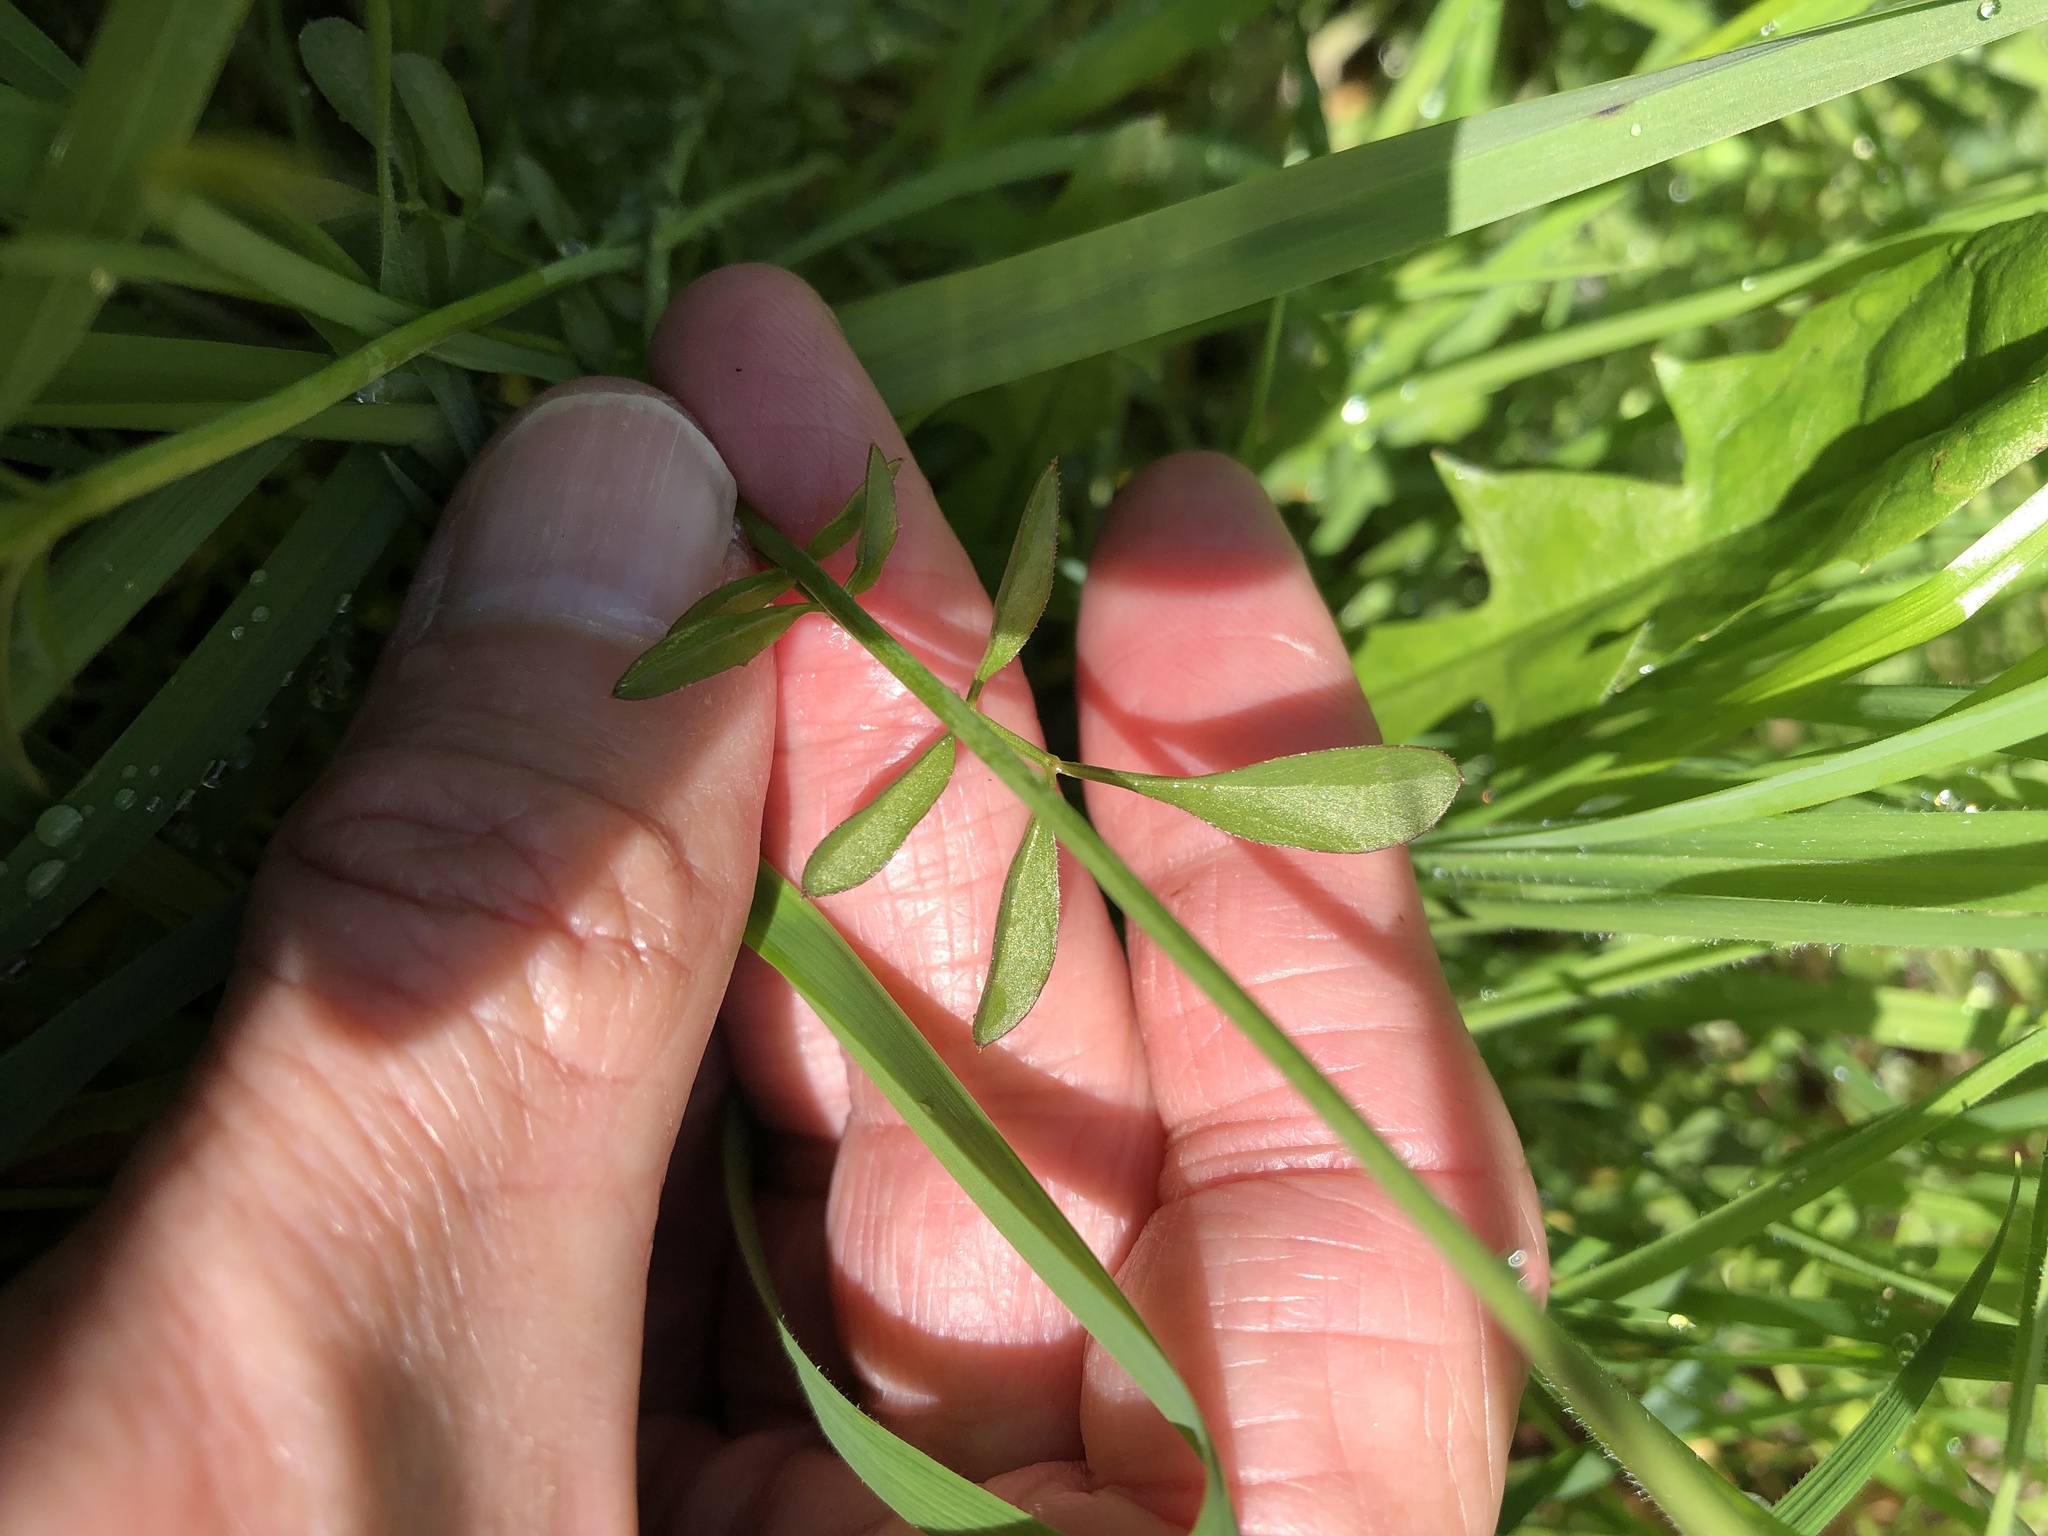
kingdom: Plantae
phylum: Tracheophyta
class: Magnoliopsida
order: Brassicales
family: Brassicaceae
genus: Cardamine
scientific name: Cardamine pratensis
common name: Cuckoo flower
